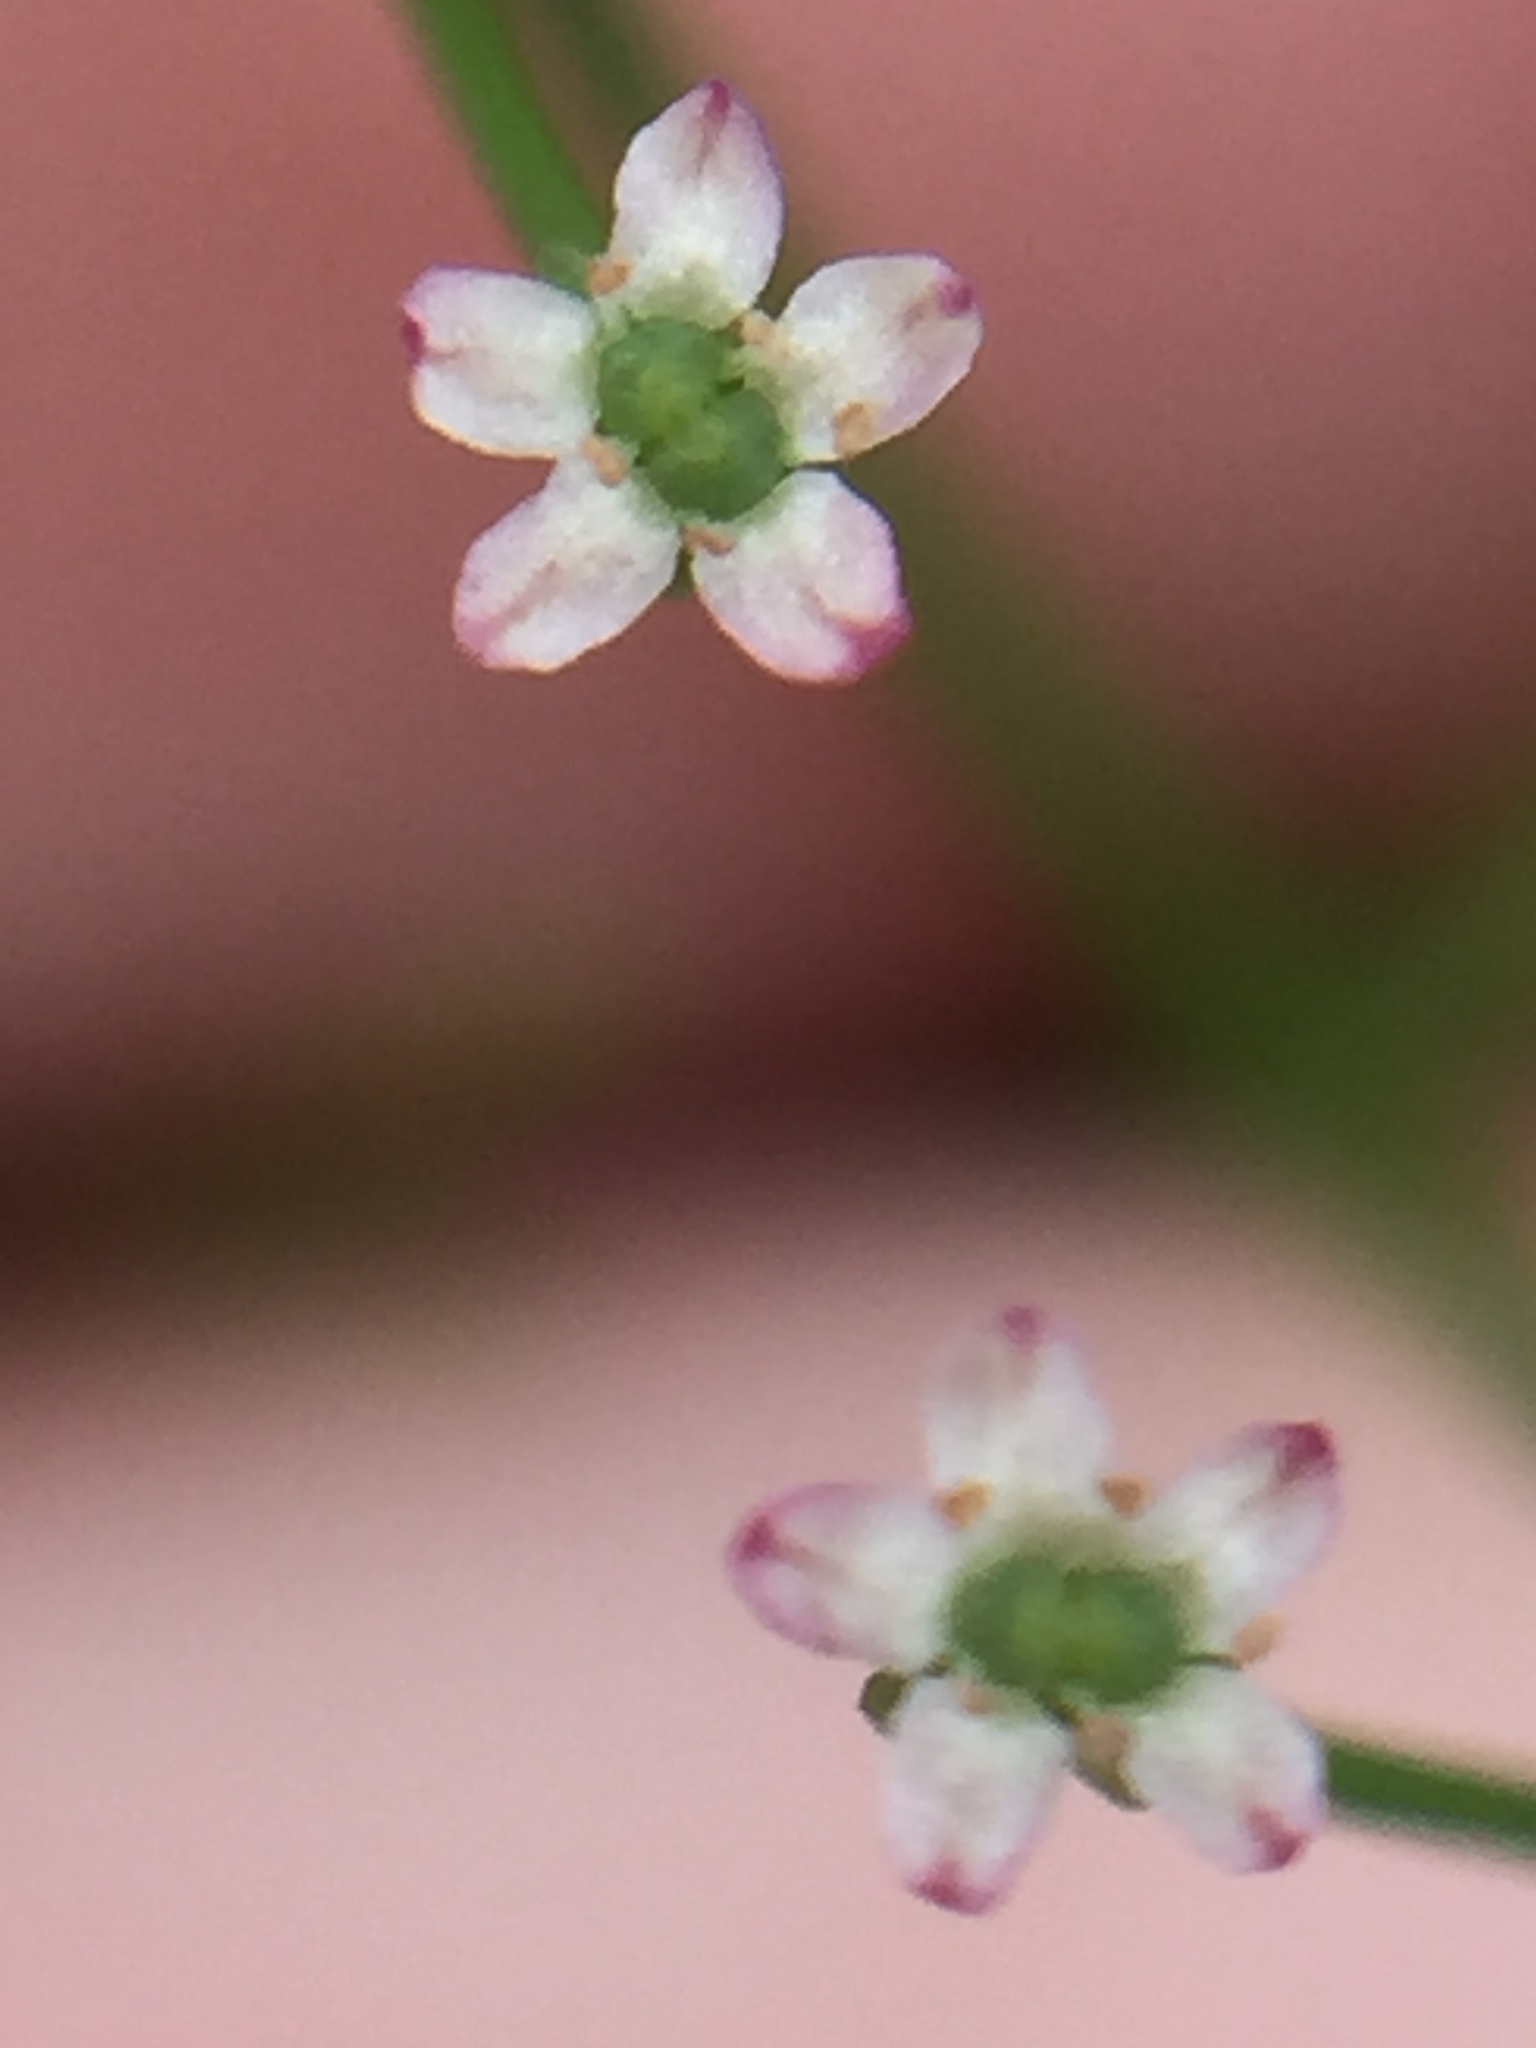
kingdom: Plantae
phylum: Tracheophyta
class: Magnoliopsida
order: Apiales
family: Apiaceae
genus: Cyclospermum
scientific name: Cyclospermum leptophyllum
